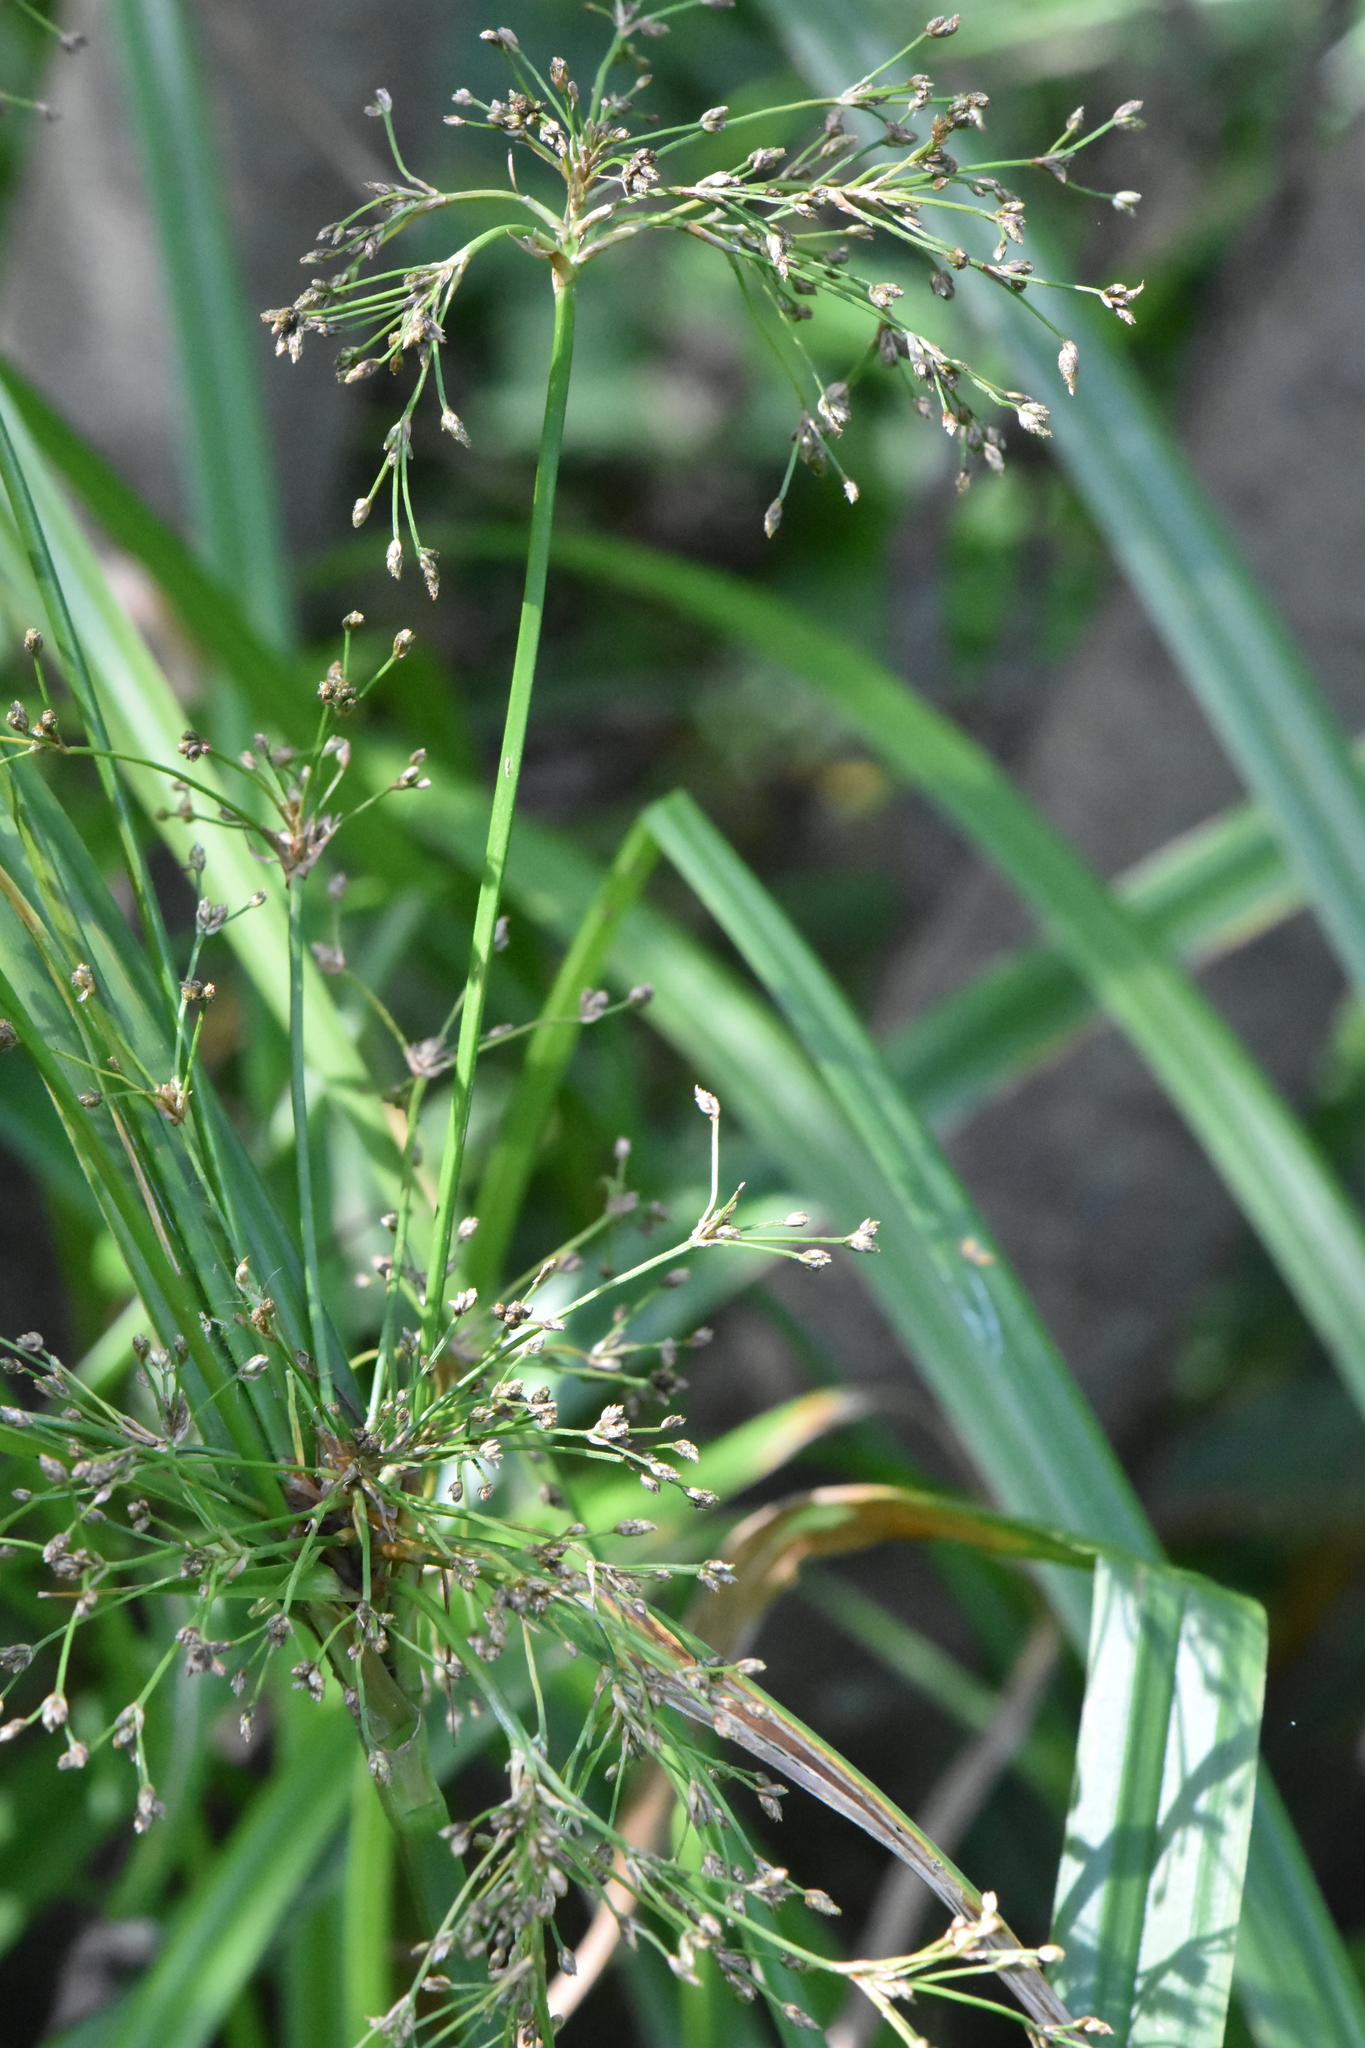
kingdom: Plantae
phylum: Tracheophyta
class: Liliopsida
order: Poales
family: Cyperaceae
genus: Scirpus
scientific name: Scirpus sylvaticus
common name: Wood club-rush
